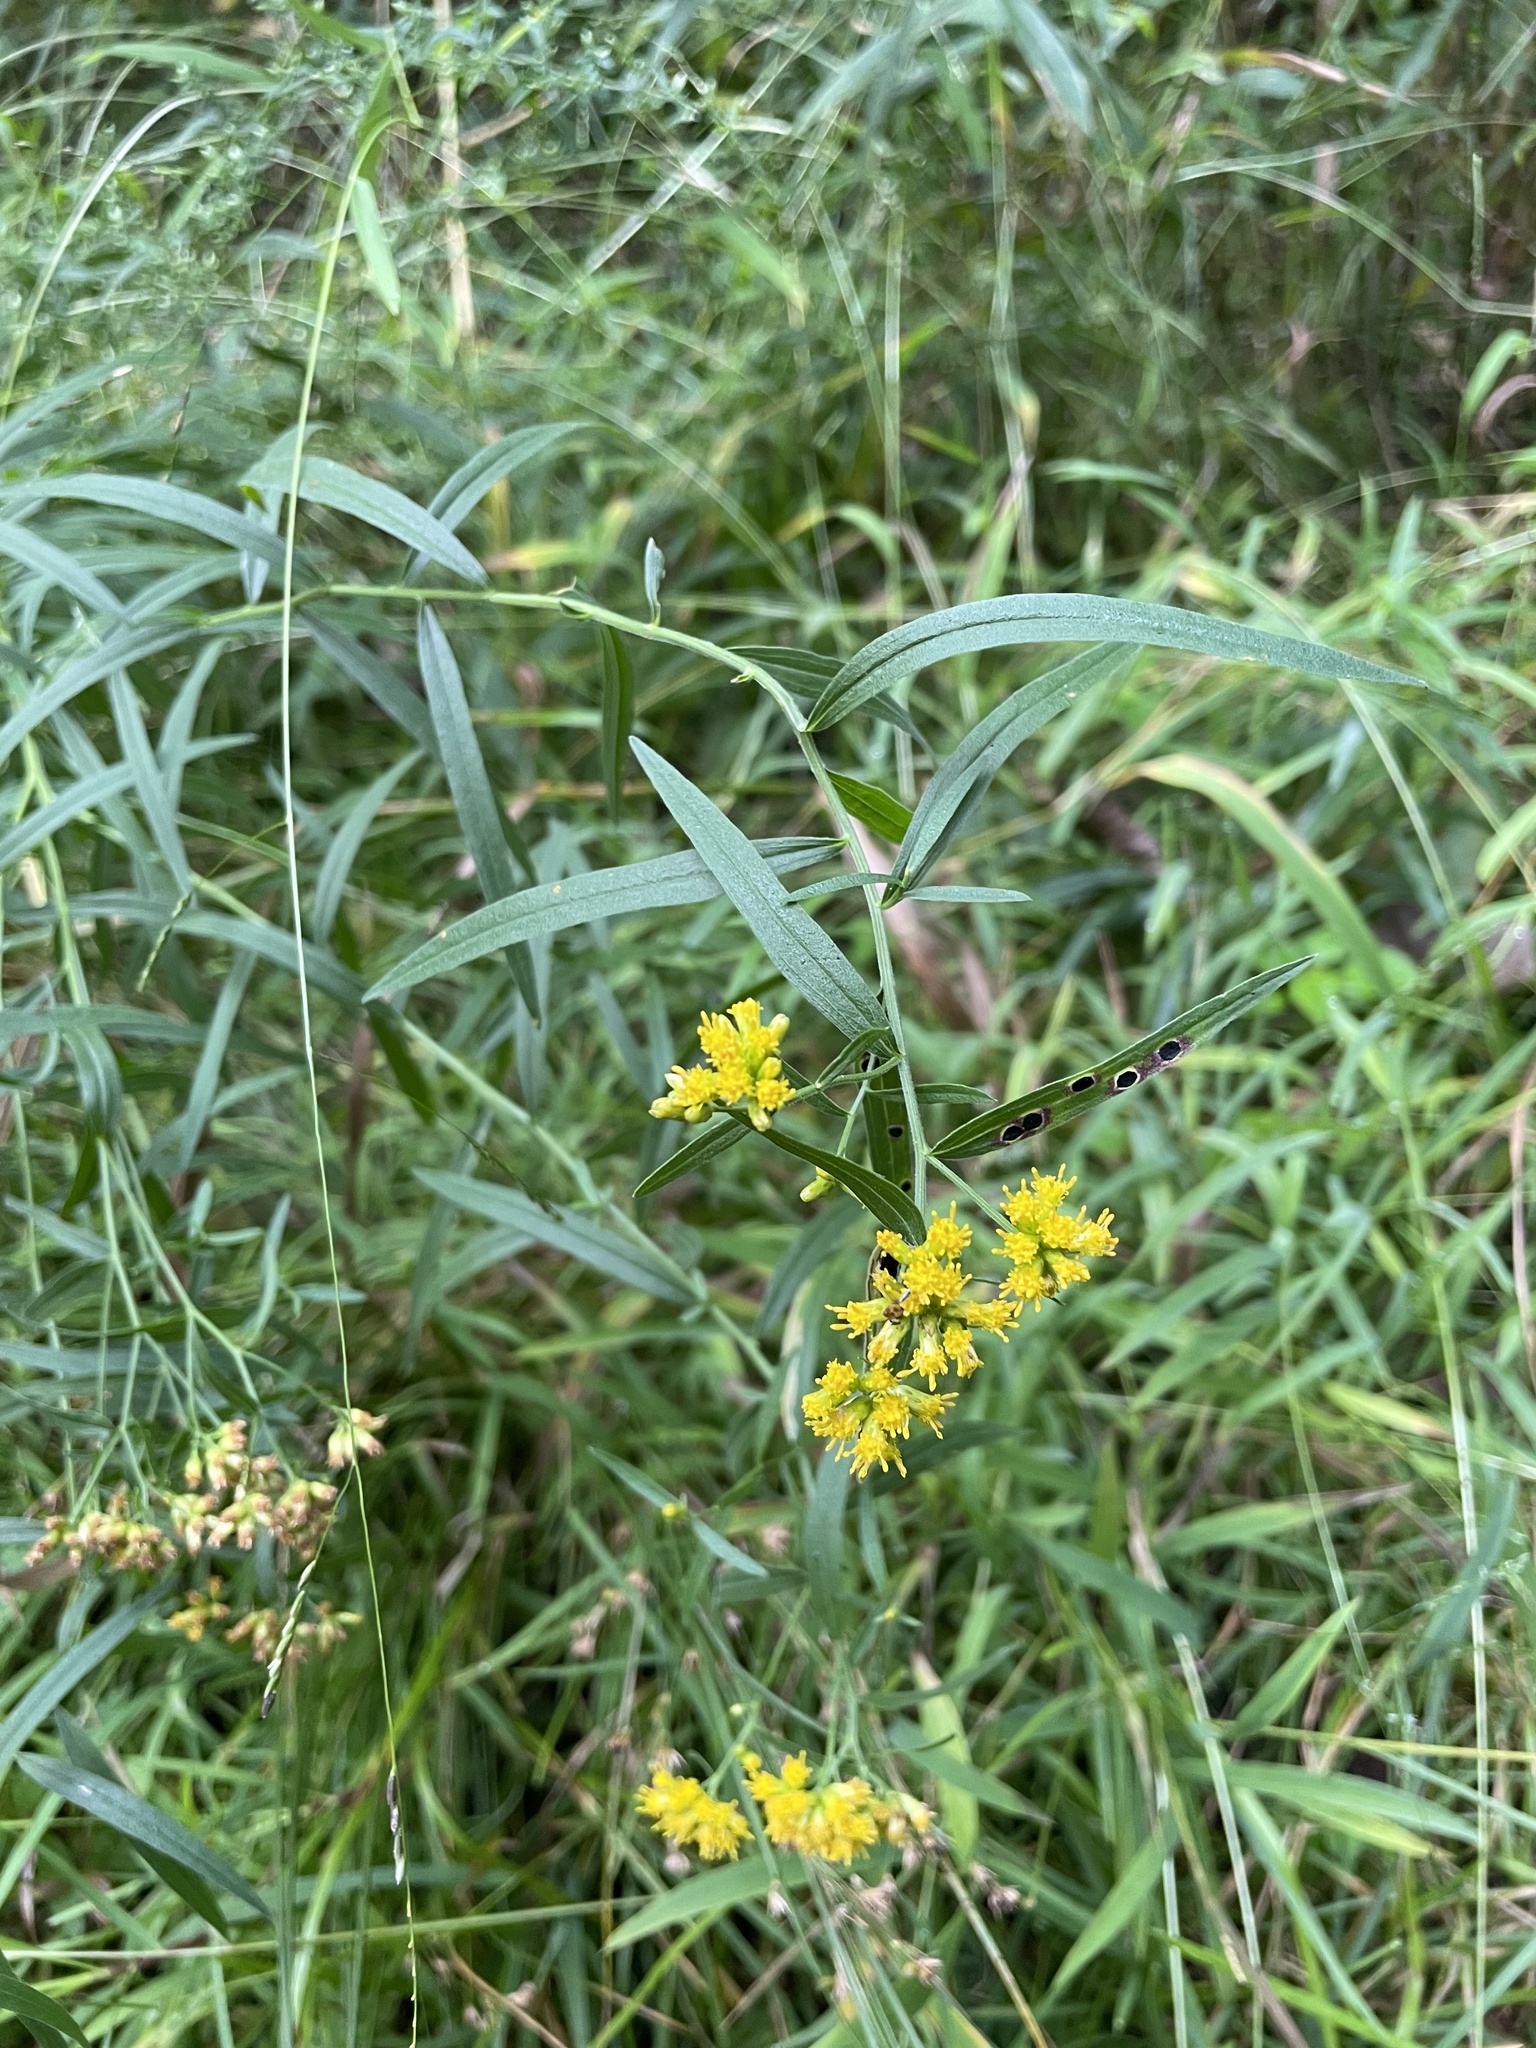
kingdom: Plantae
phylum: Tracheophyta
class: Magnoliopsida
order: Asterales
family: Asteraceae
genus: Euthamia
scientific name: Euthamia graminifolia
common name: Common goldentop
